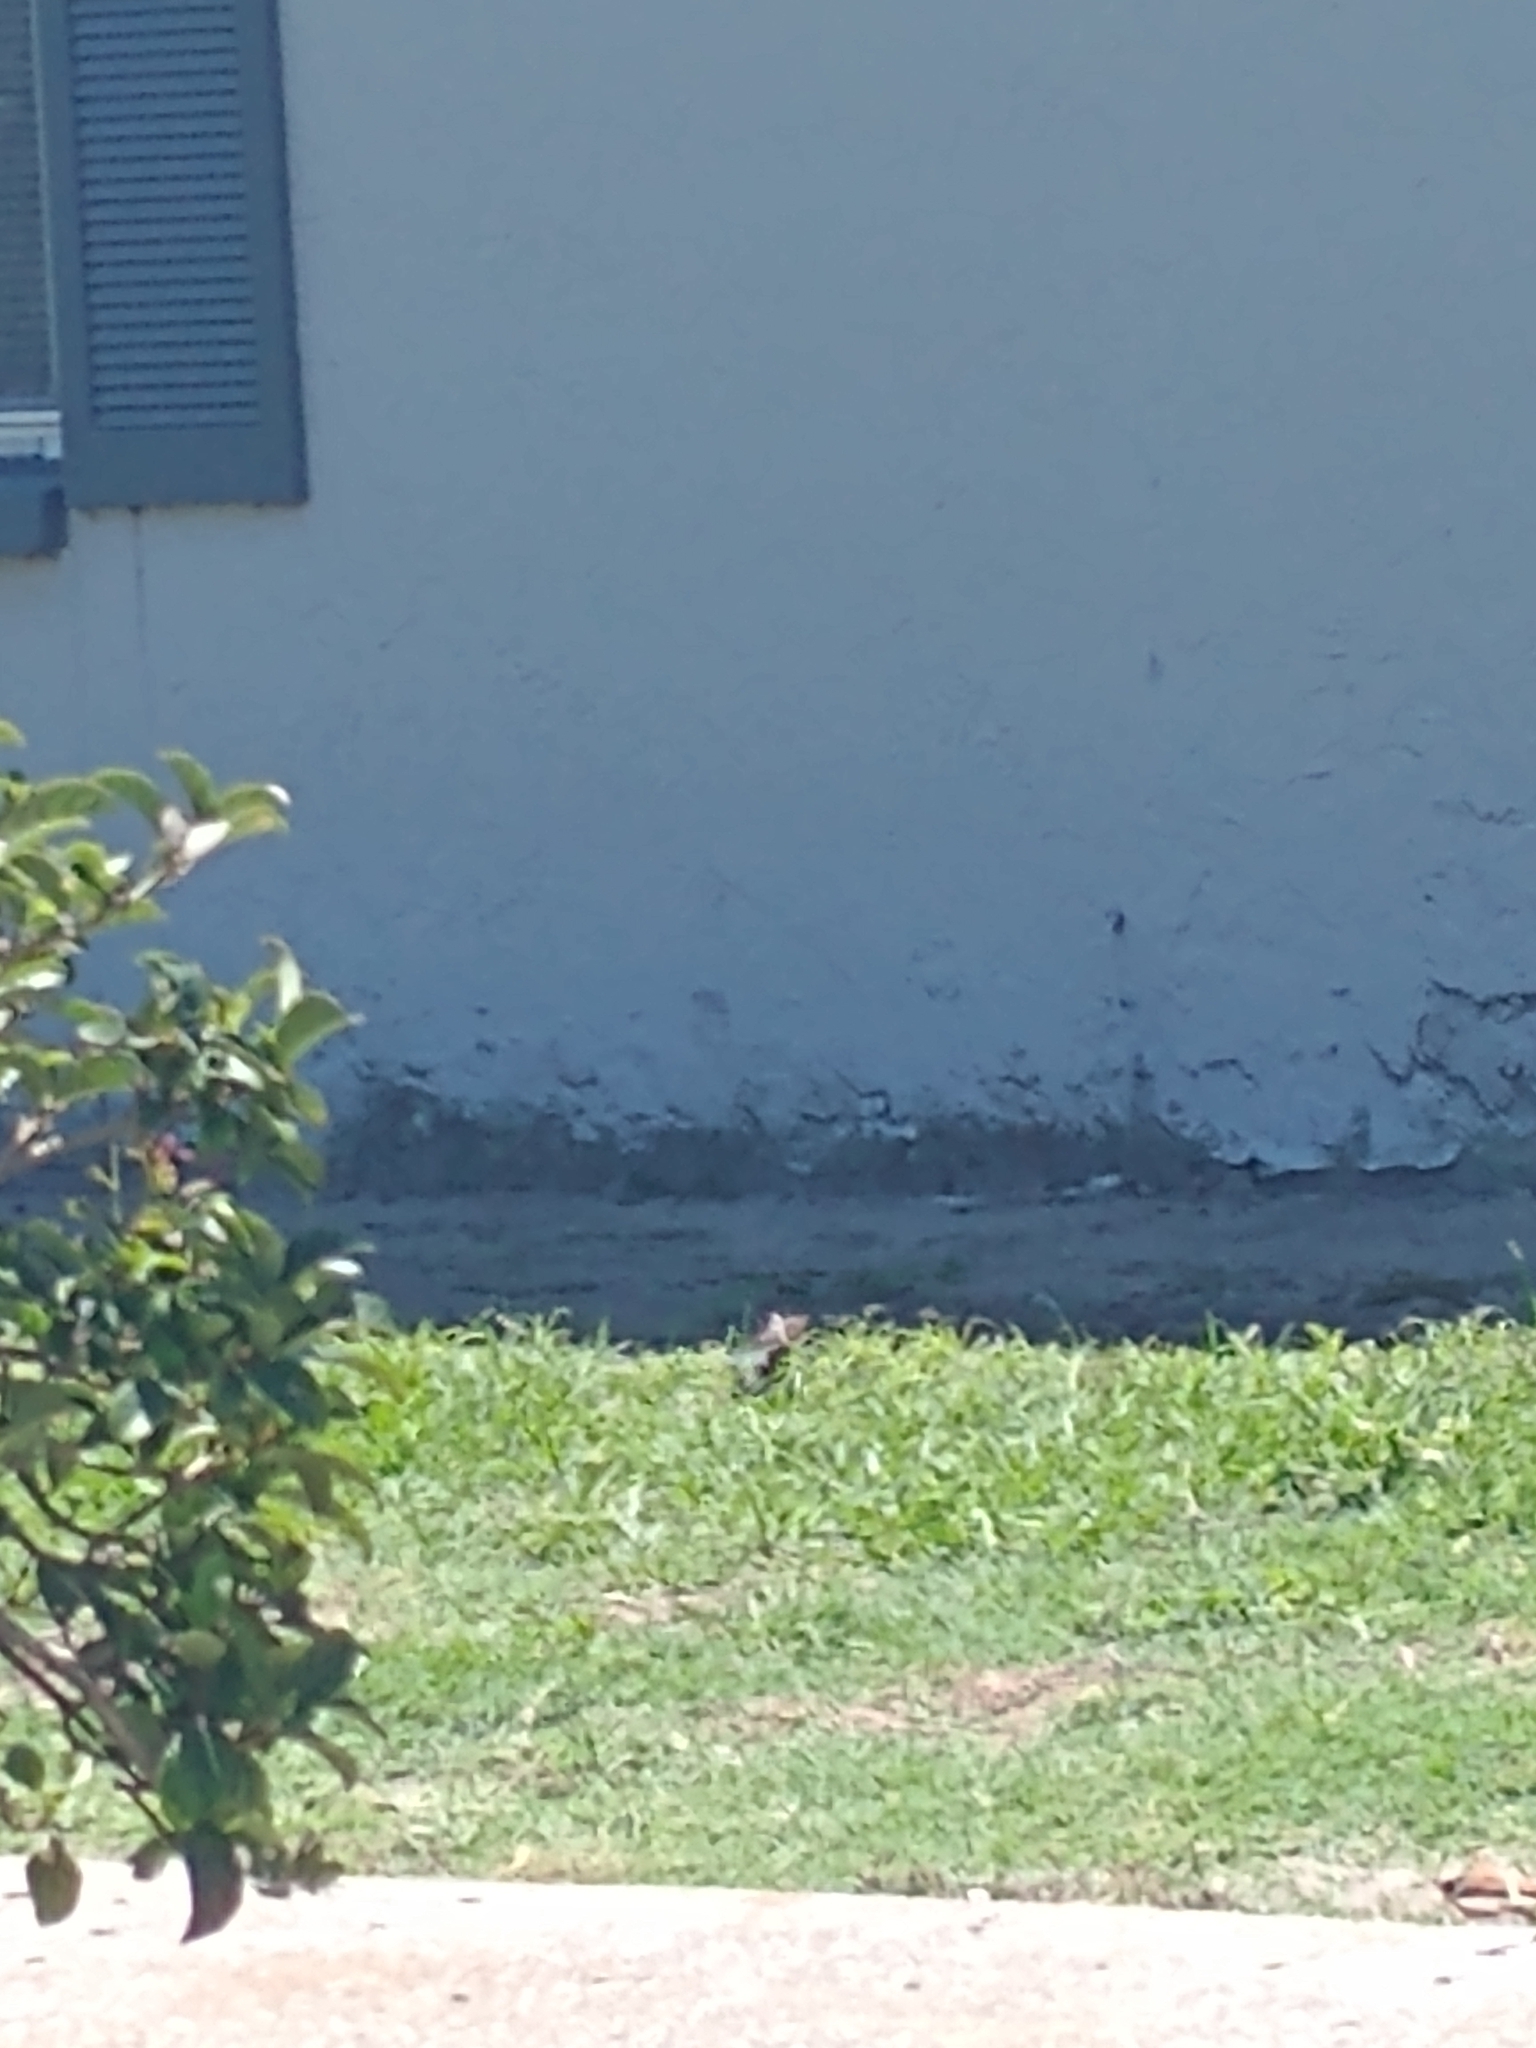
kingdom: Animalia
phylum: Chordata
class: Aves
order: Passeriformes
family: Sturnidae
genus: Sturnus
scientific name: Sturnus vulgaris
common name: Common starling
